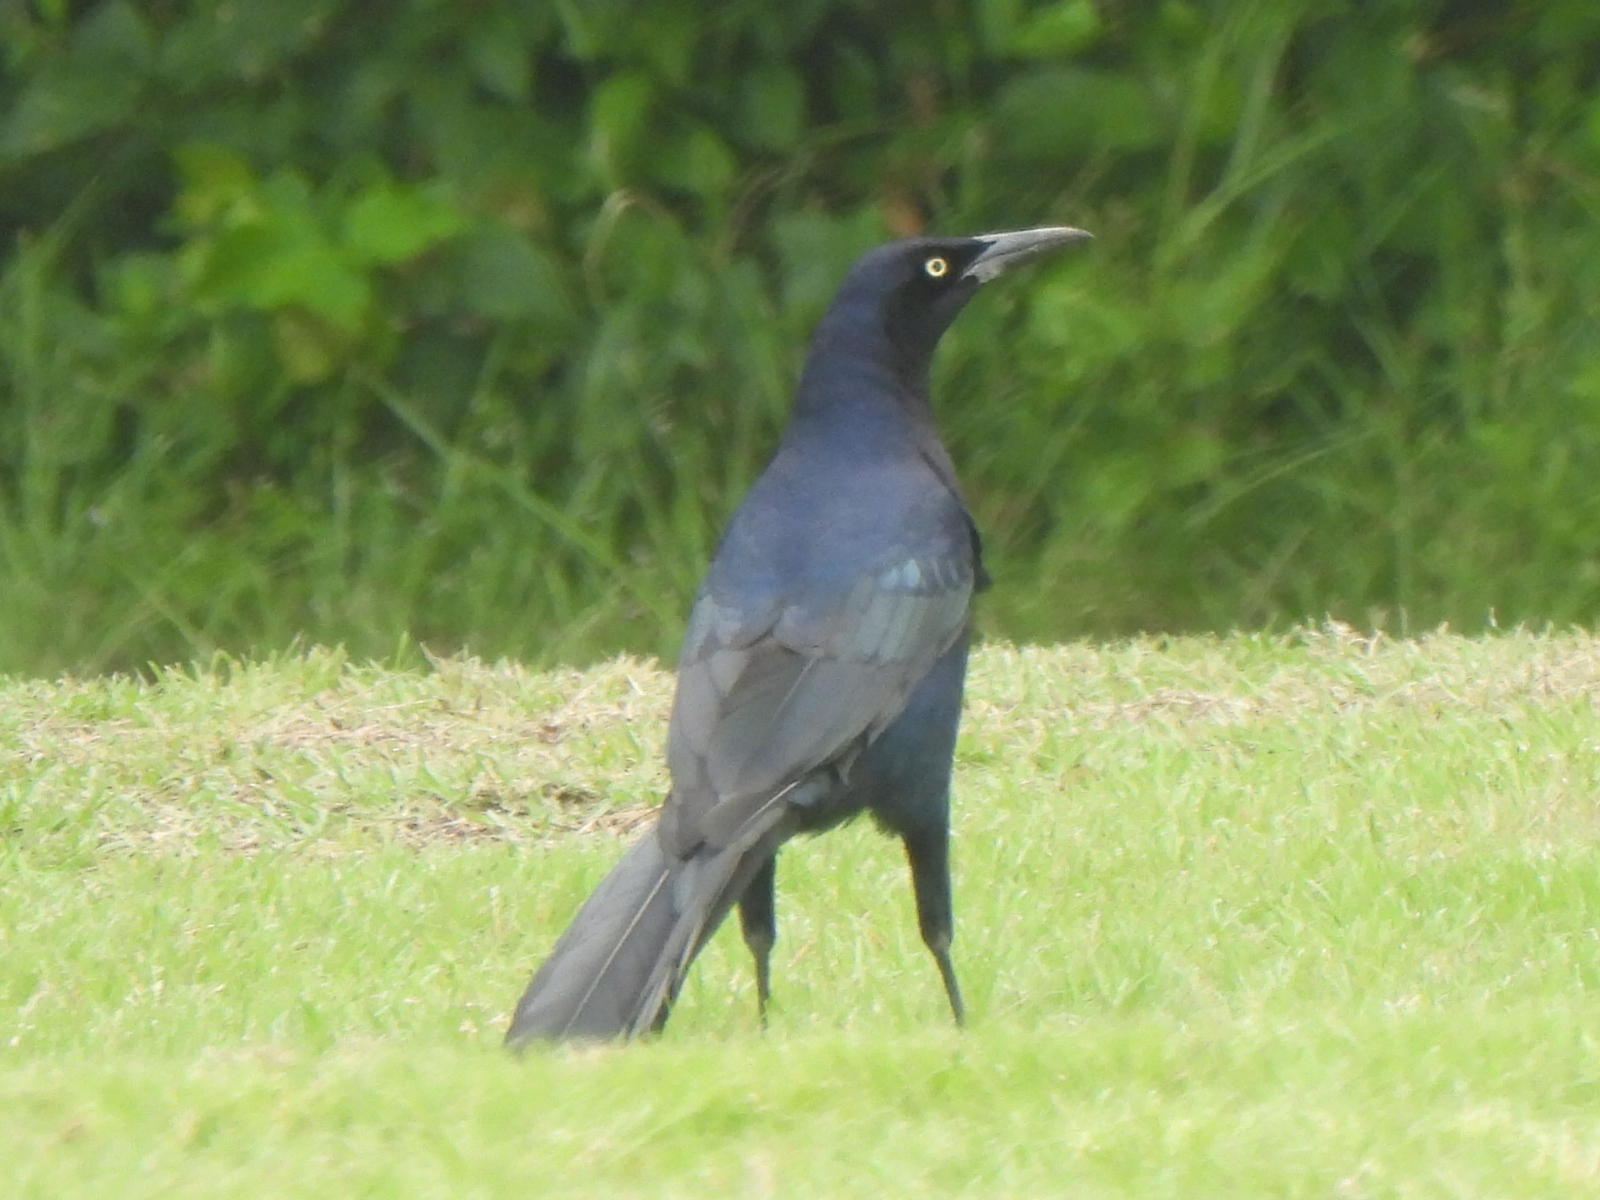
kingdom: Animalia
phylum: Chordata
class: Aves
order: Passeriformes
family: Icteridae
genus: Quiscalus
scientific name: Quiscalus mexicanus
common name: Great-tailed grackle
